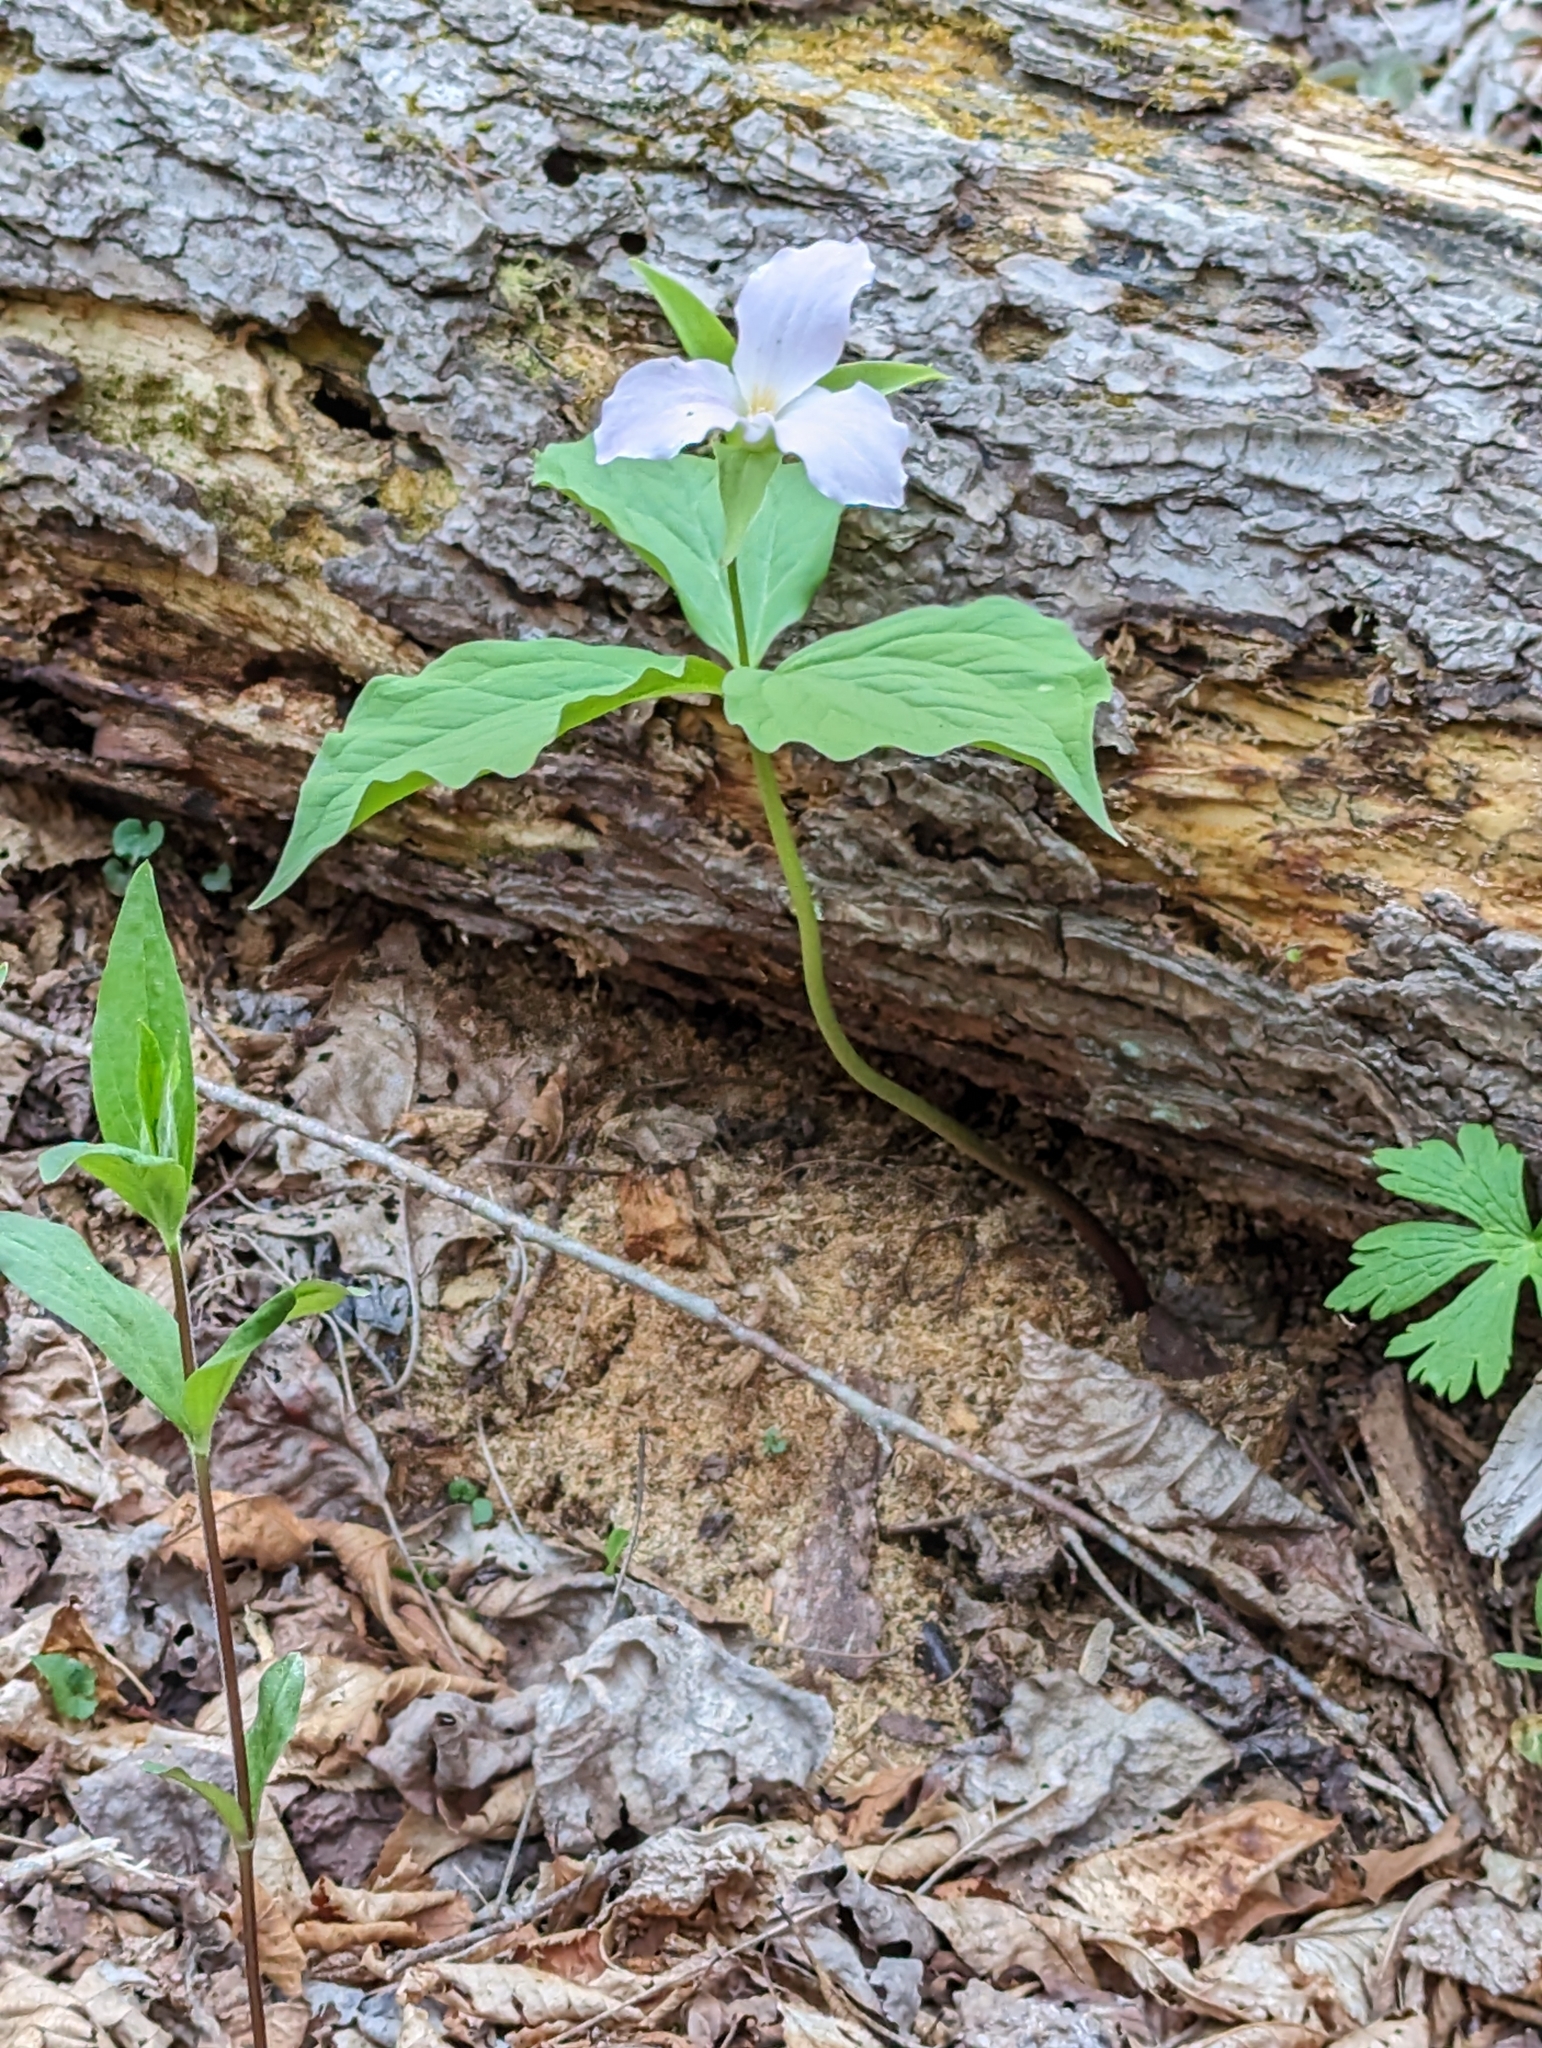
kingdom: Plantae
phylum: Tracheophyta
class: Liliopsida
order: Liliales
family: Melanthiaceae
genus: Trillium
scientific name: Trillium grandiflorum
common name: Great white trillium
